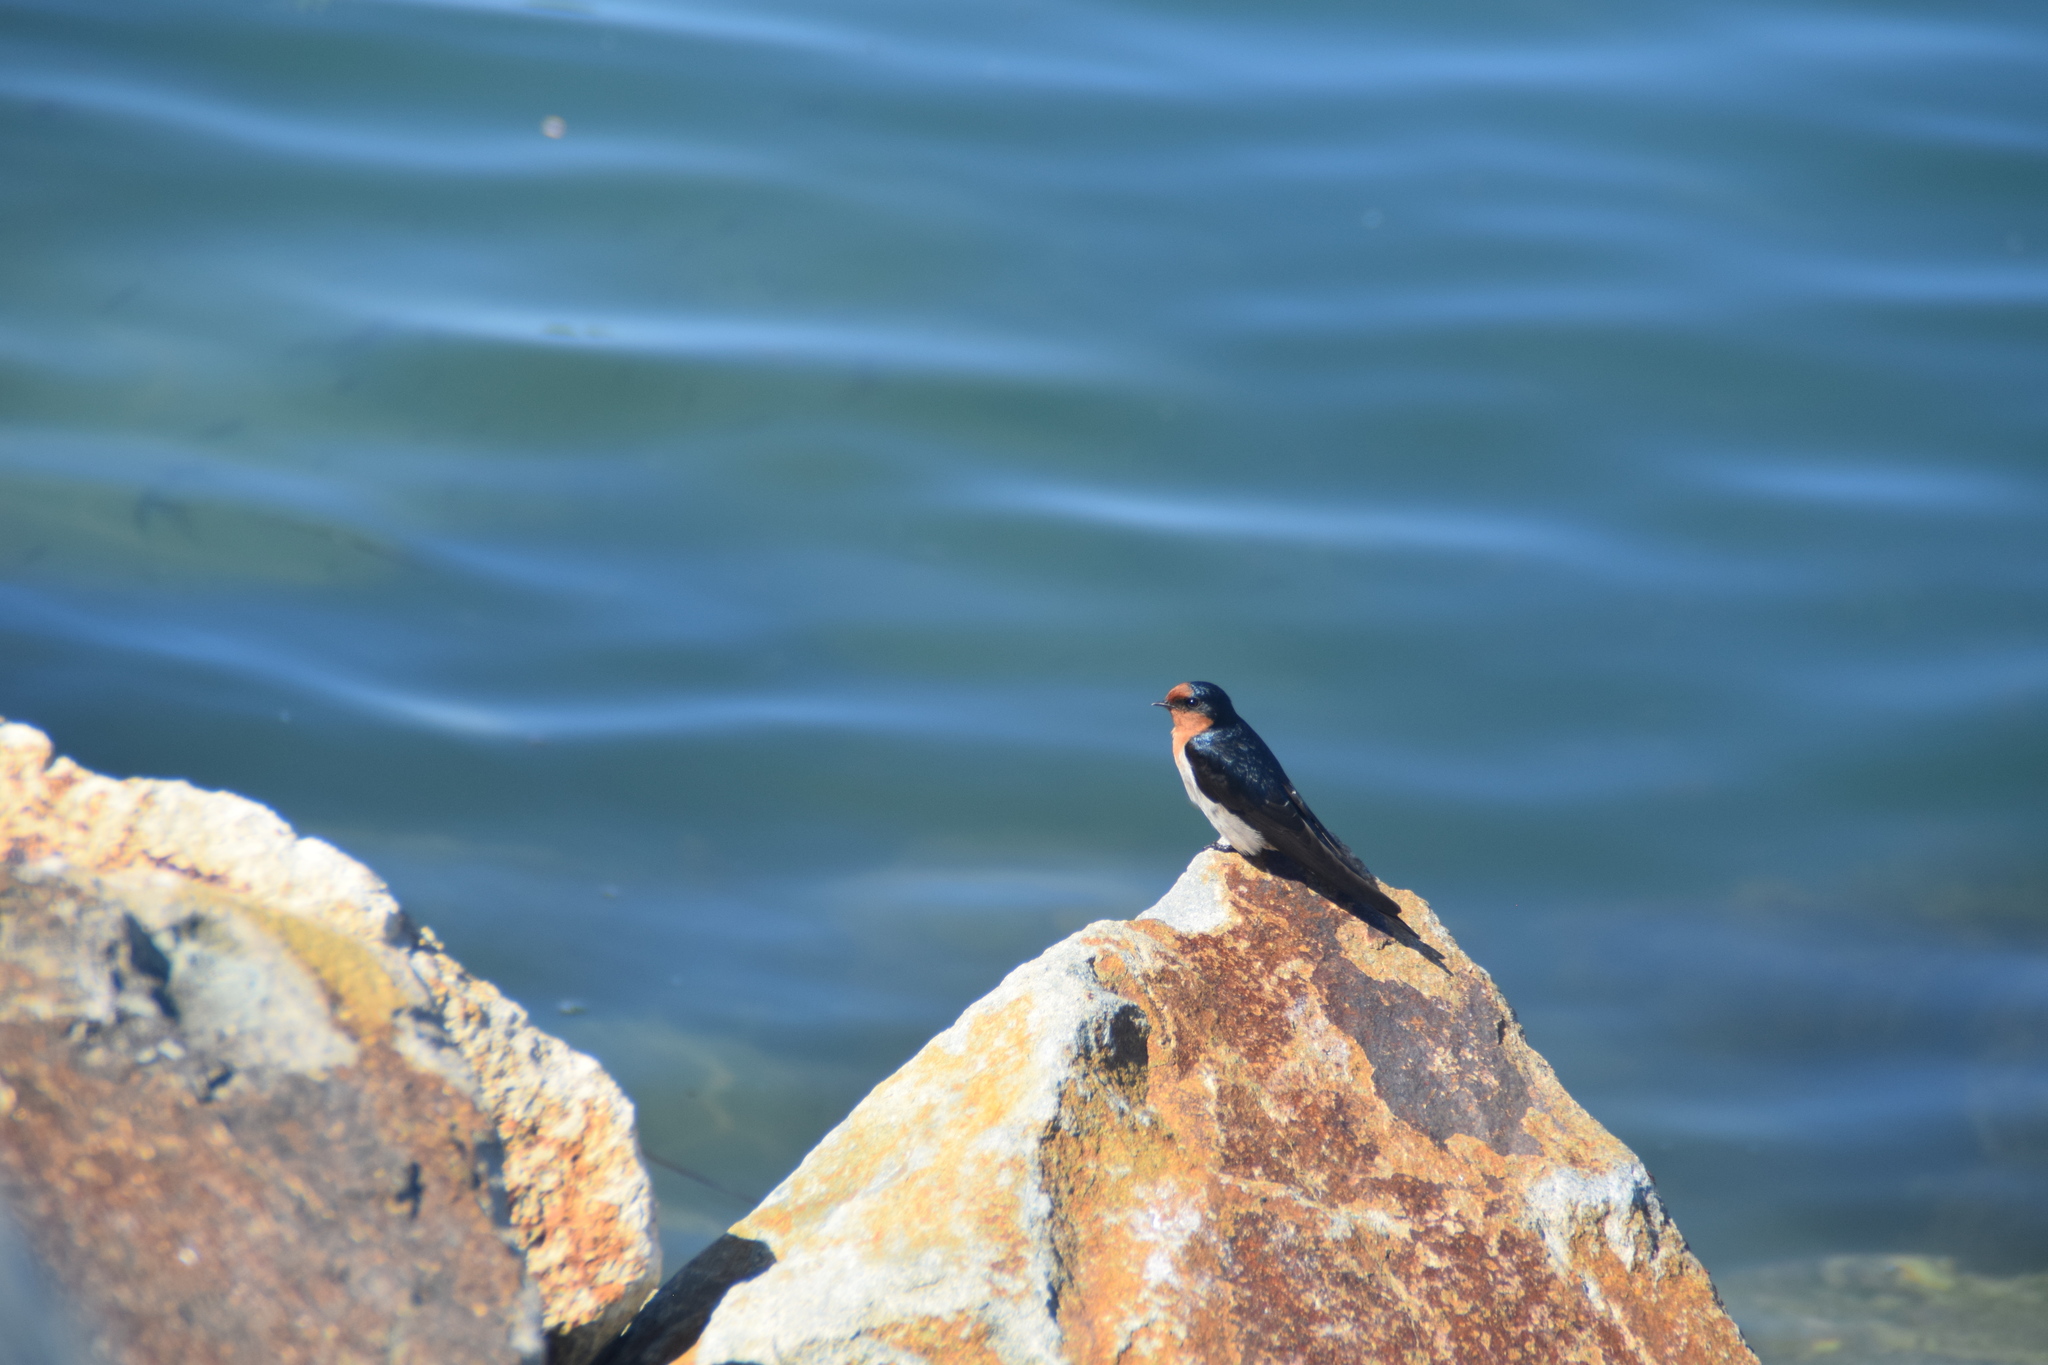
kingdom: Animalia
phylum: Chordata
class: Aves
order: Passeriformes
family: Hirundinidae
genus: Hirundo
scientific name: Hirundo neoxena
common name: Welcome swallow
